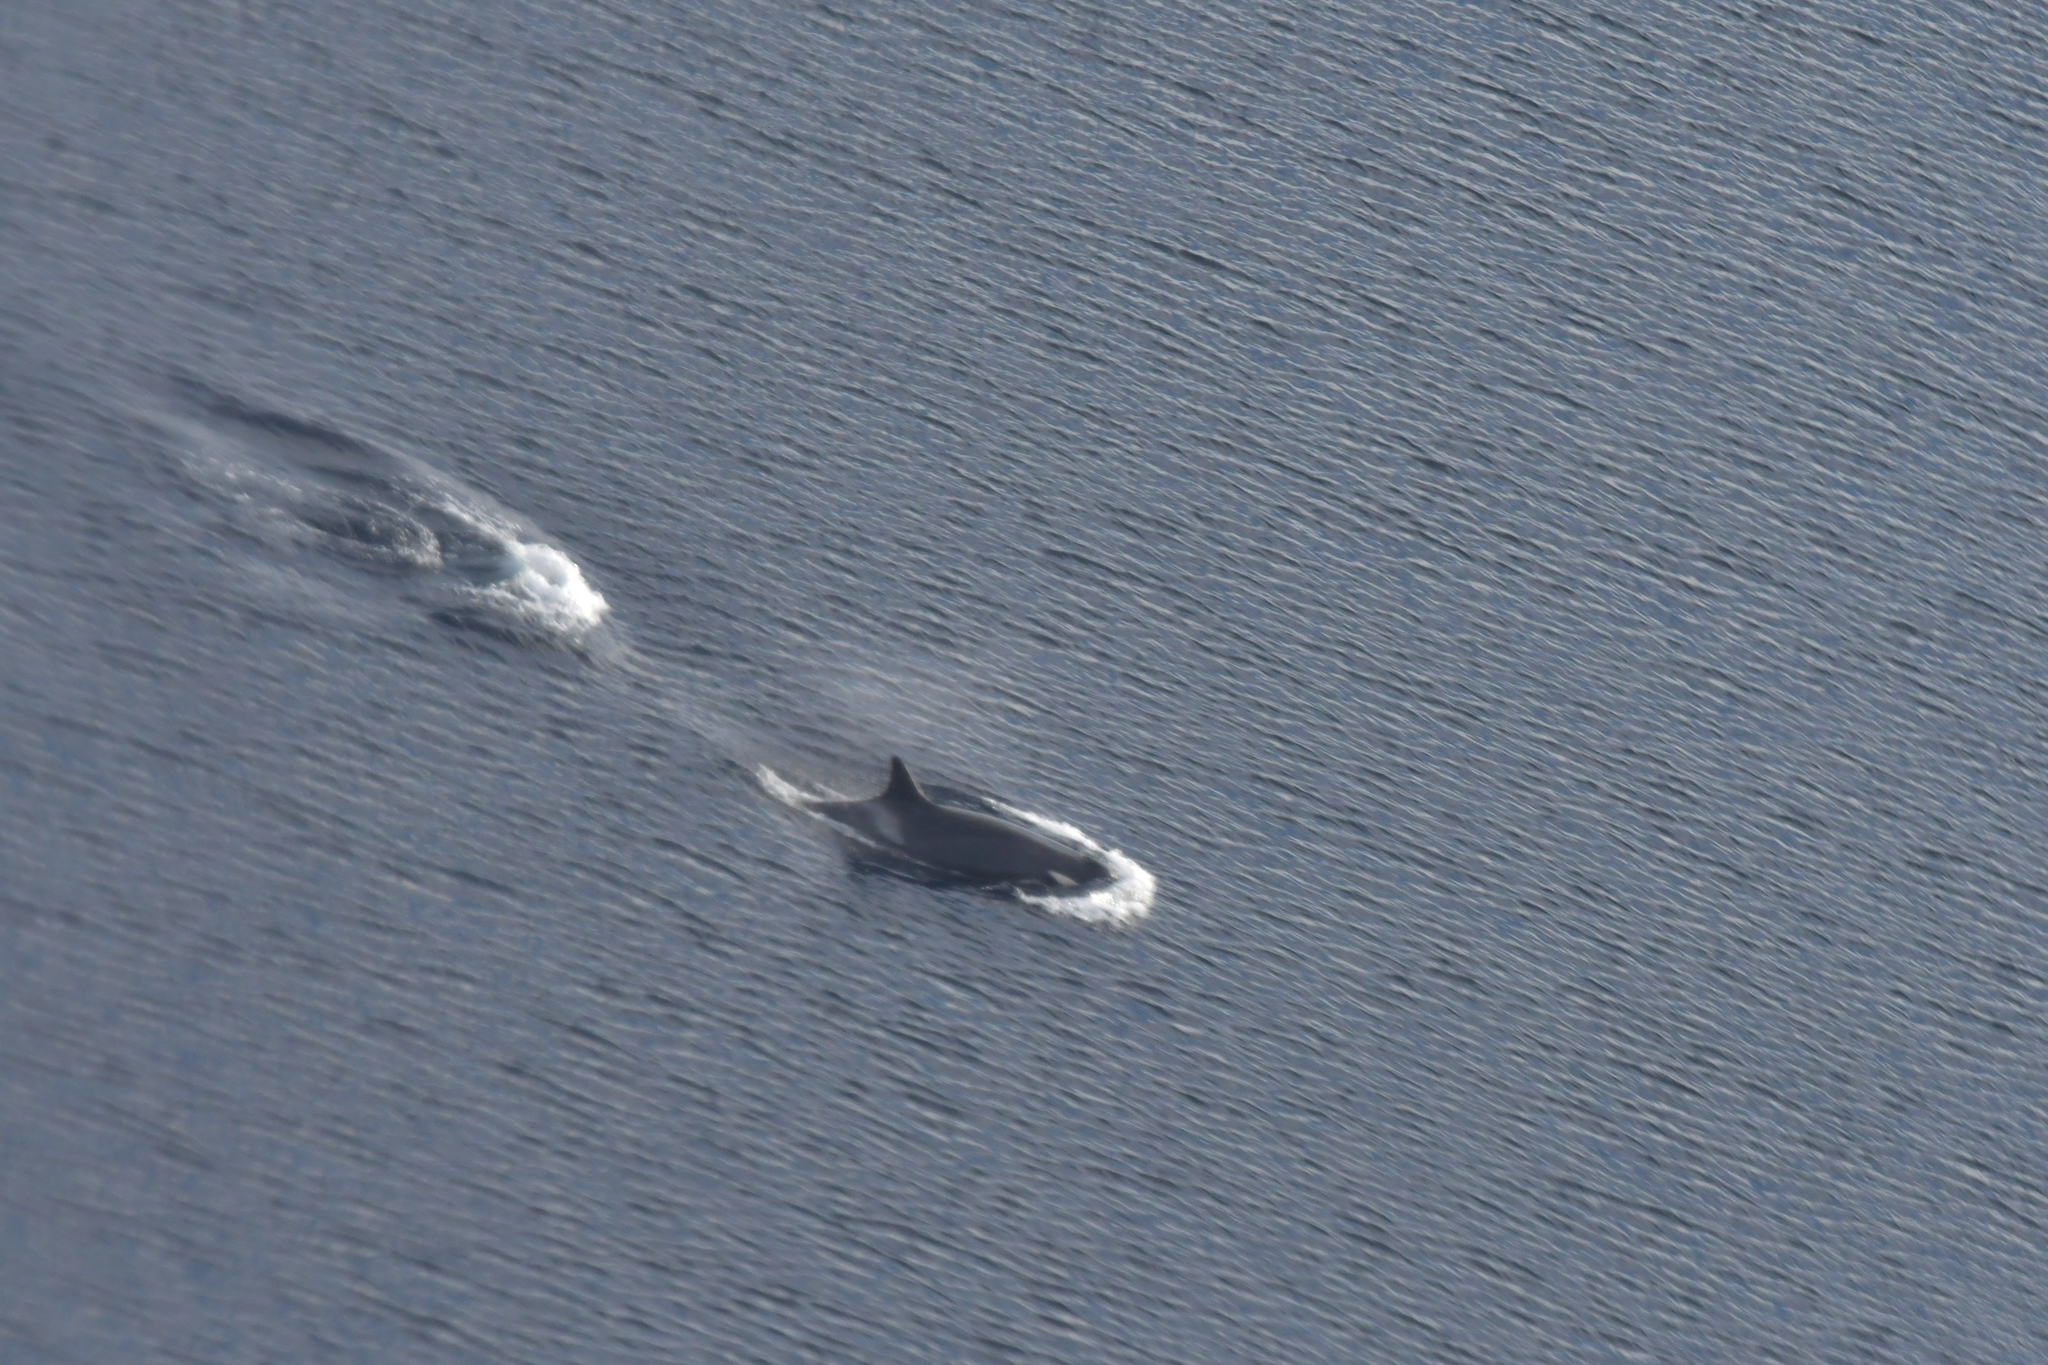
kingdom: Animalia
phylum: Chordata
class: Mammalia
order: Cetacea
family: Delphinidae
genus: Orcinus
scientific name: Orcinus orca
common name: Killer whale
